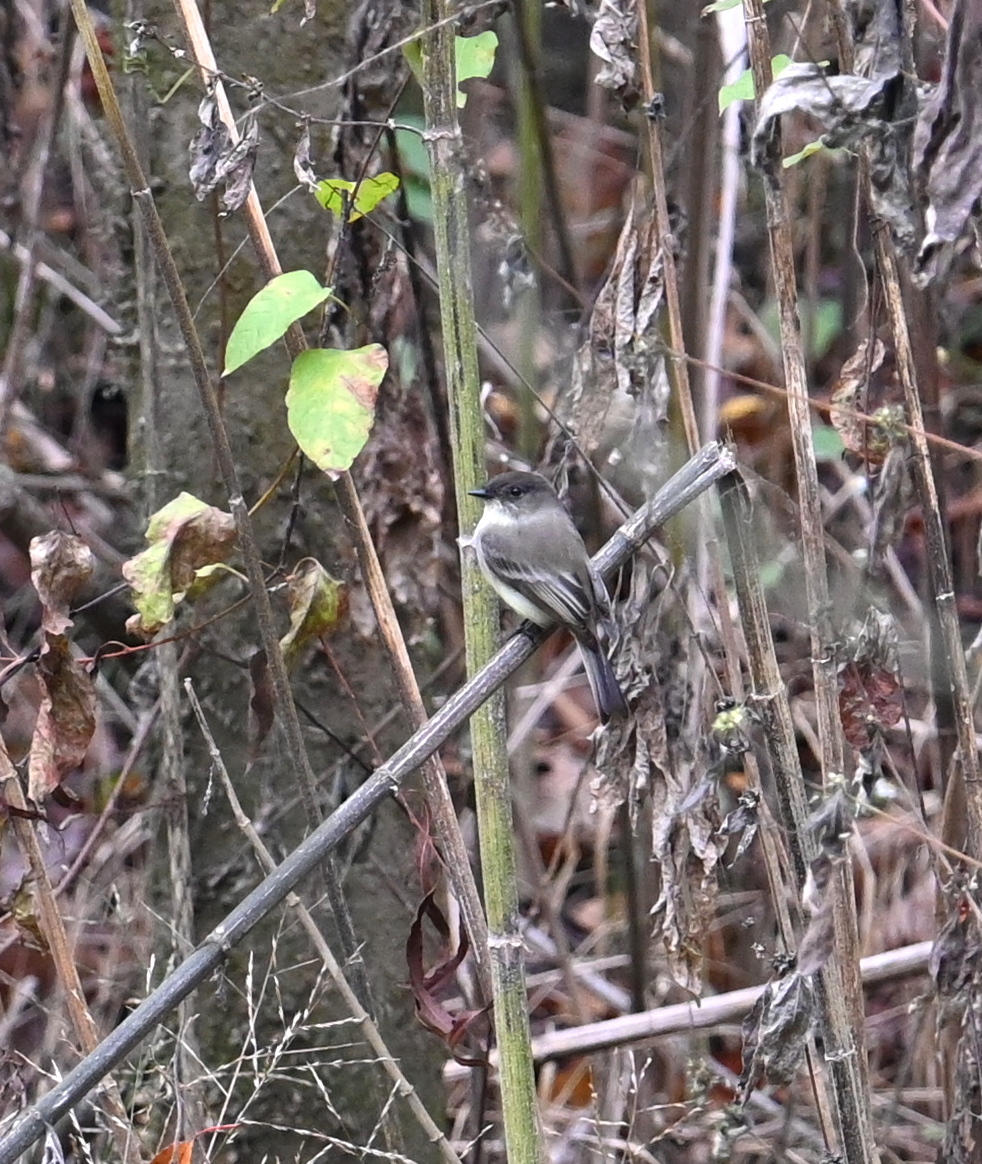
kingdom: Animalia
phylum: Chordata
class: Aves
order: Passeriformes
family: Tyrannidae
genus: Sayornis
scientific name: Sayornis phoebe
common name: Eastern phoebe
